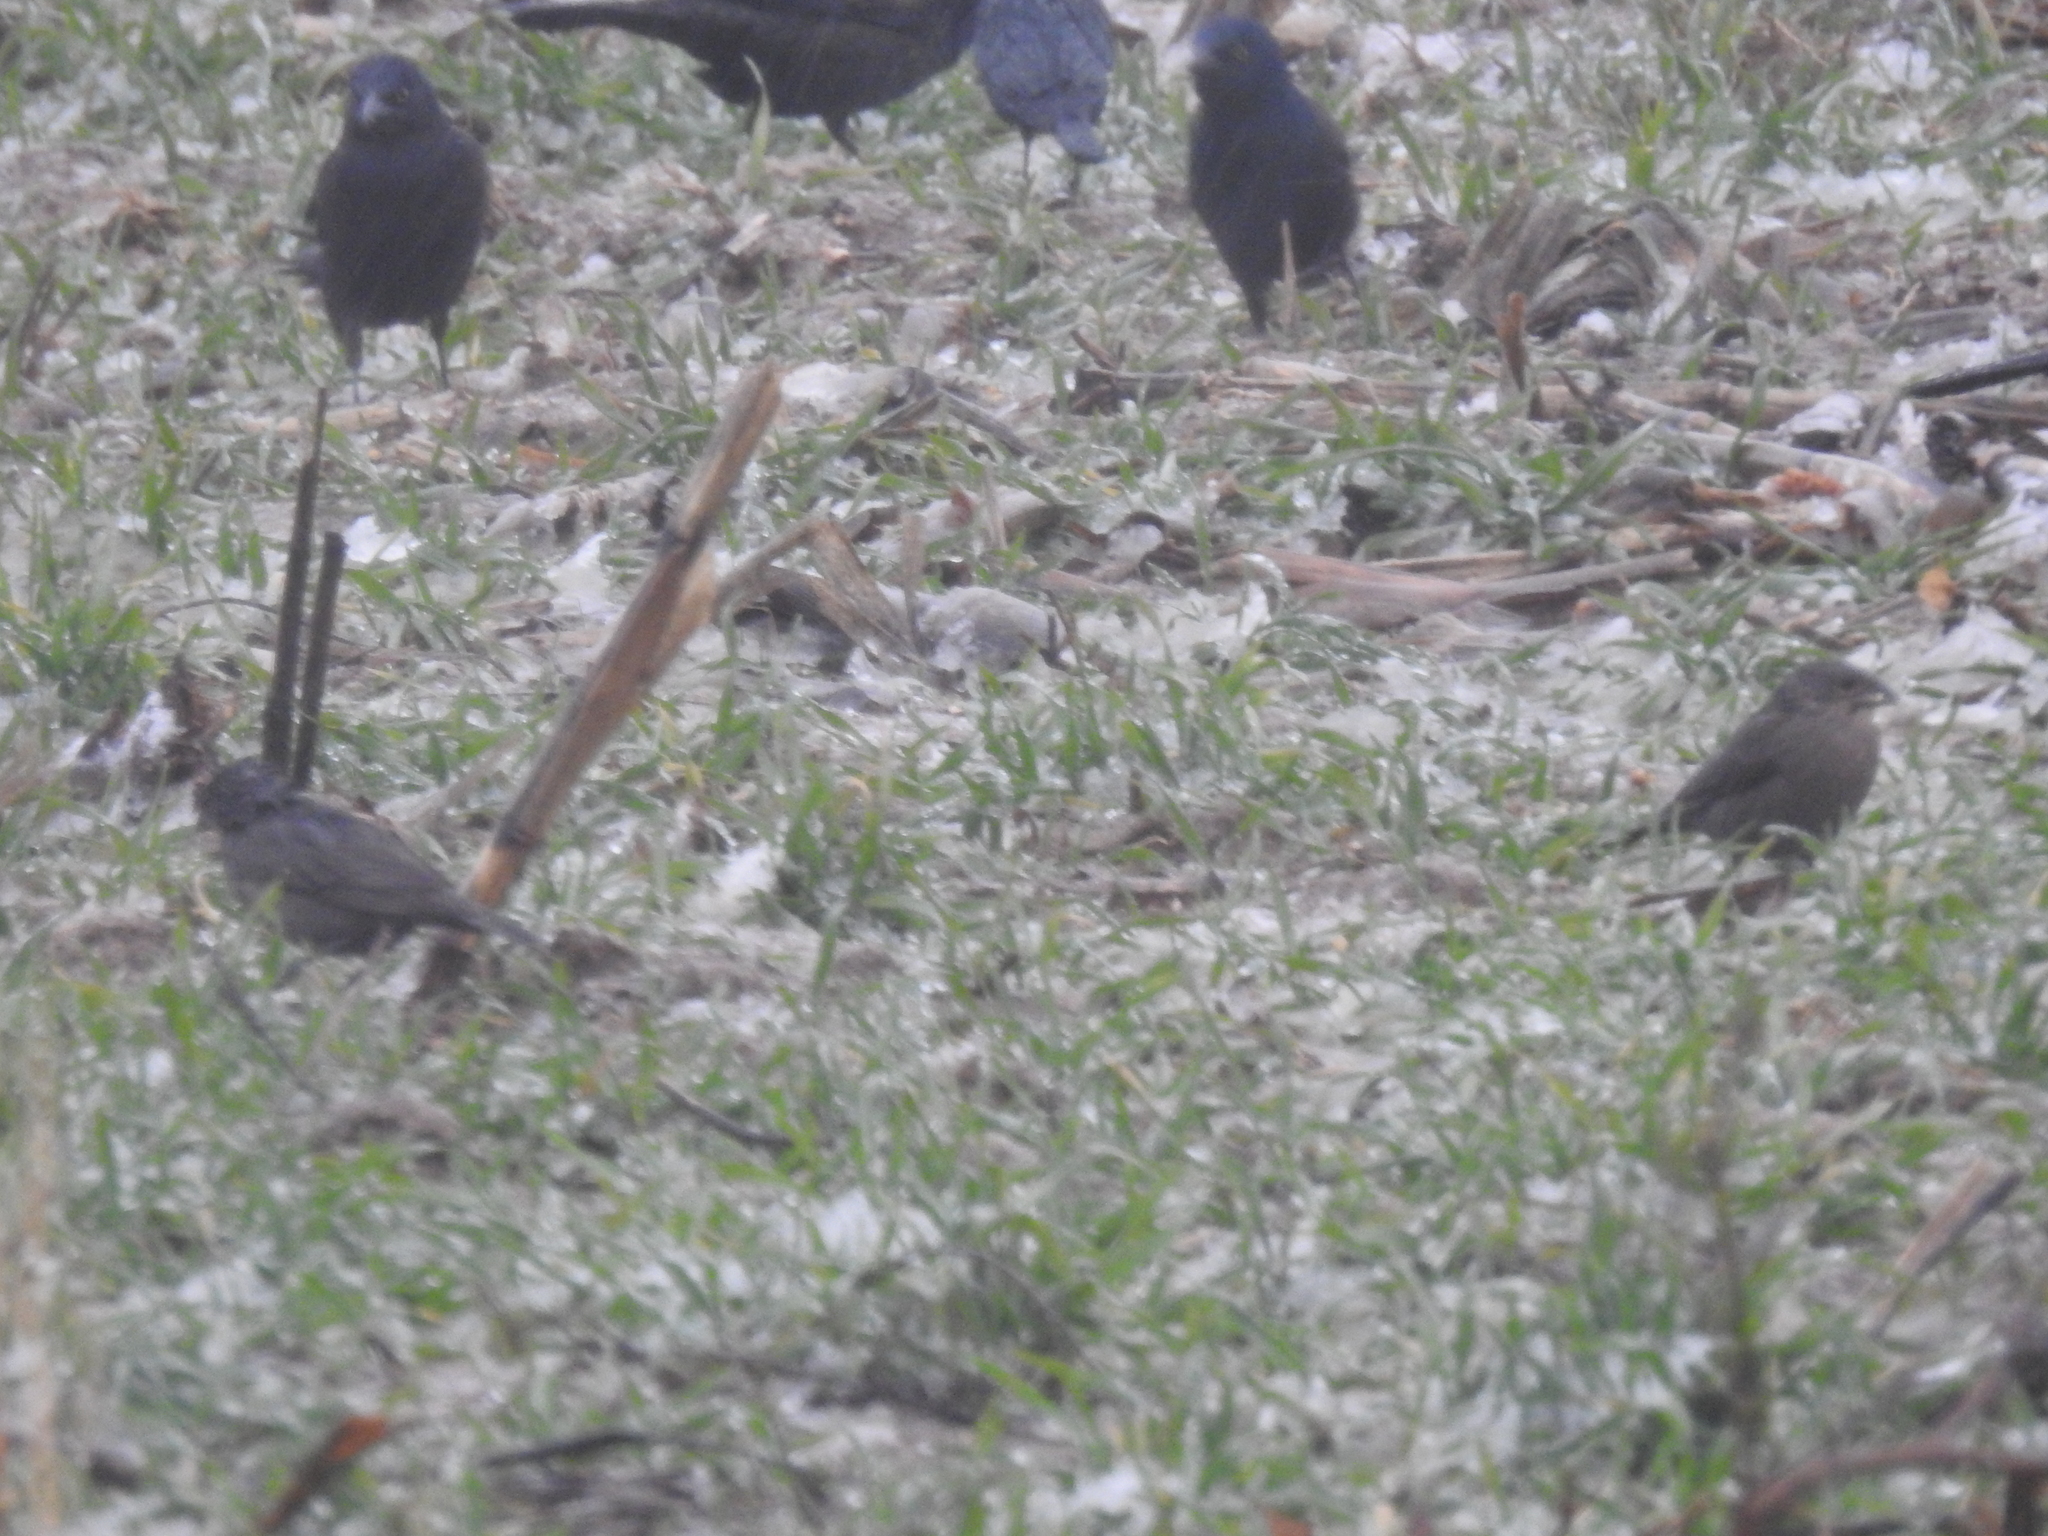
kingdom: Animalia
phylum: Chordata
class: Aves
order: Passeriformes
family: Icteridae
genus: Molothrus
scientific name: Molothrus ater
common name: Brown-headed cowbird
